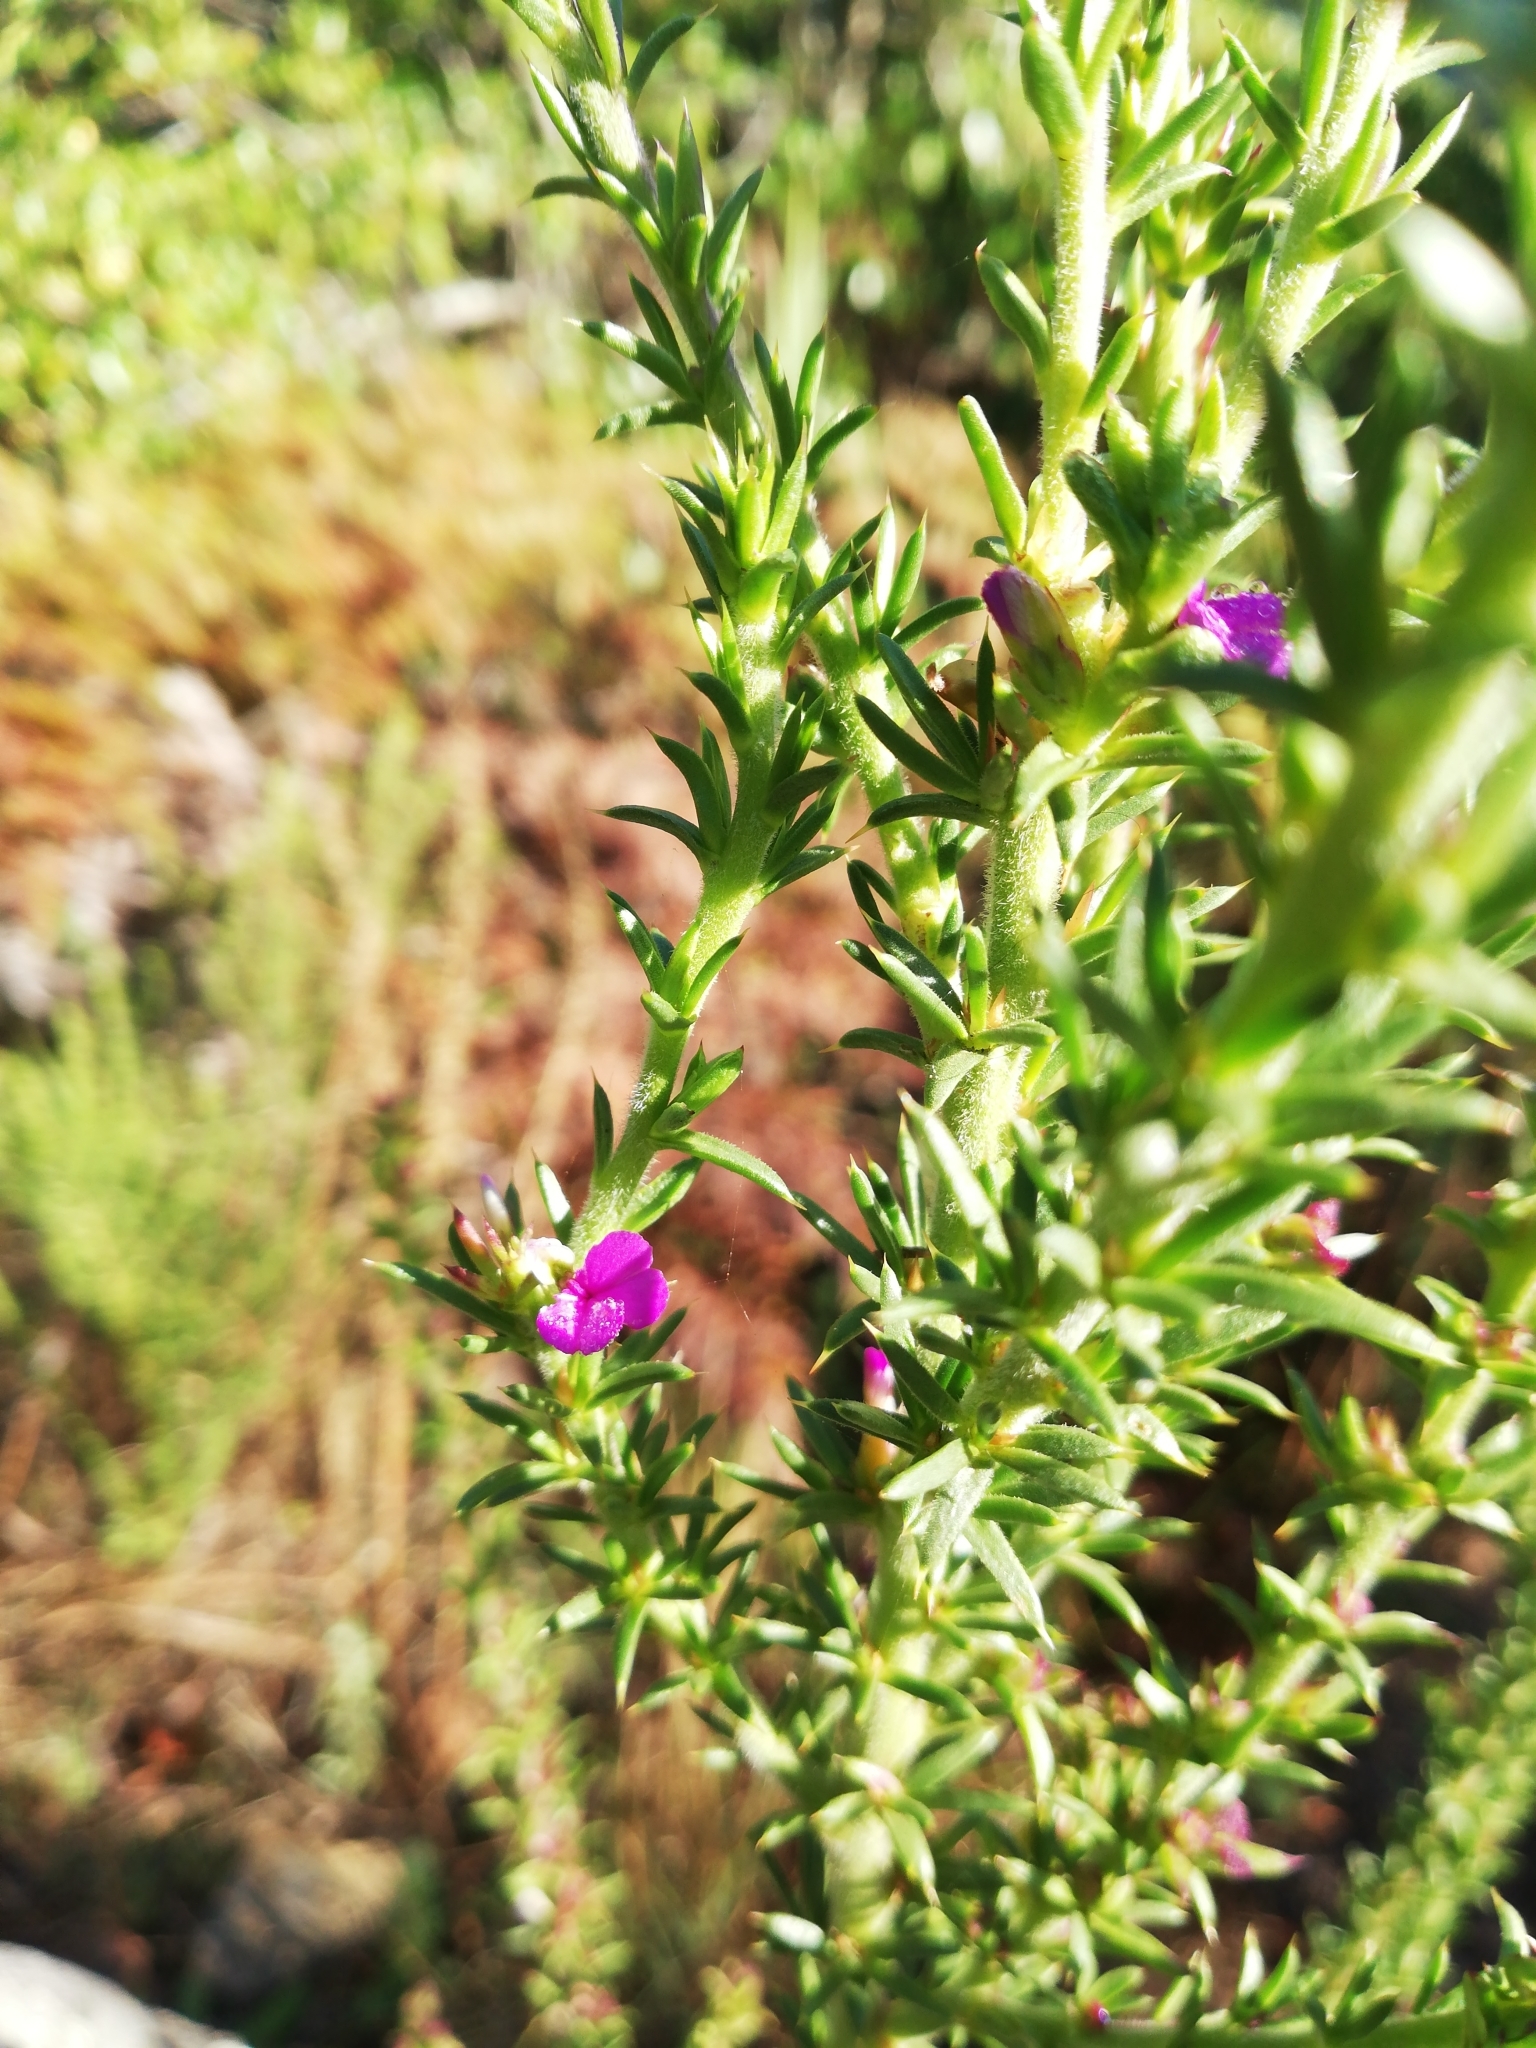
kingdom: Plantae
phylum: Tracheophyta
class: Magnoliopsida
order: Fabales
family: Polygalaceae
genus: Muraltia
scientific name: Muraltia heisteria
